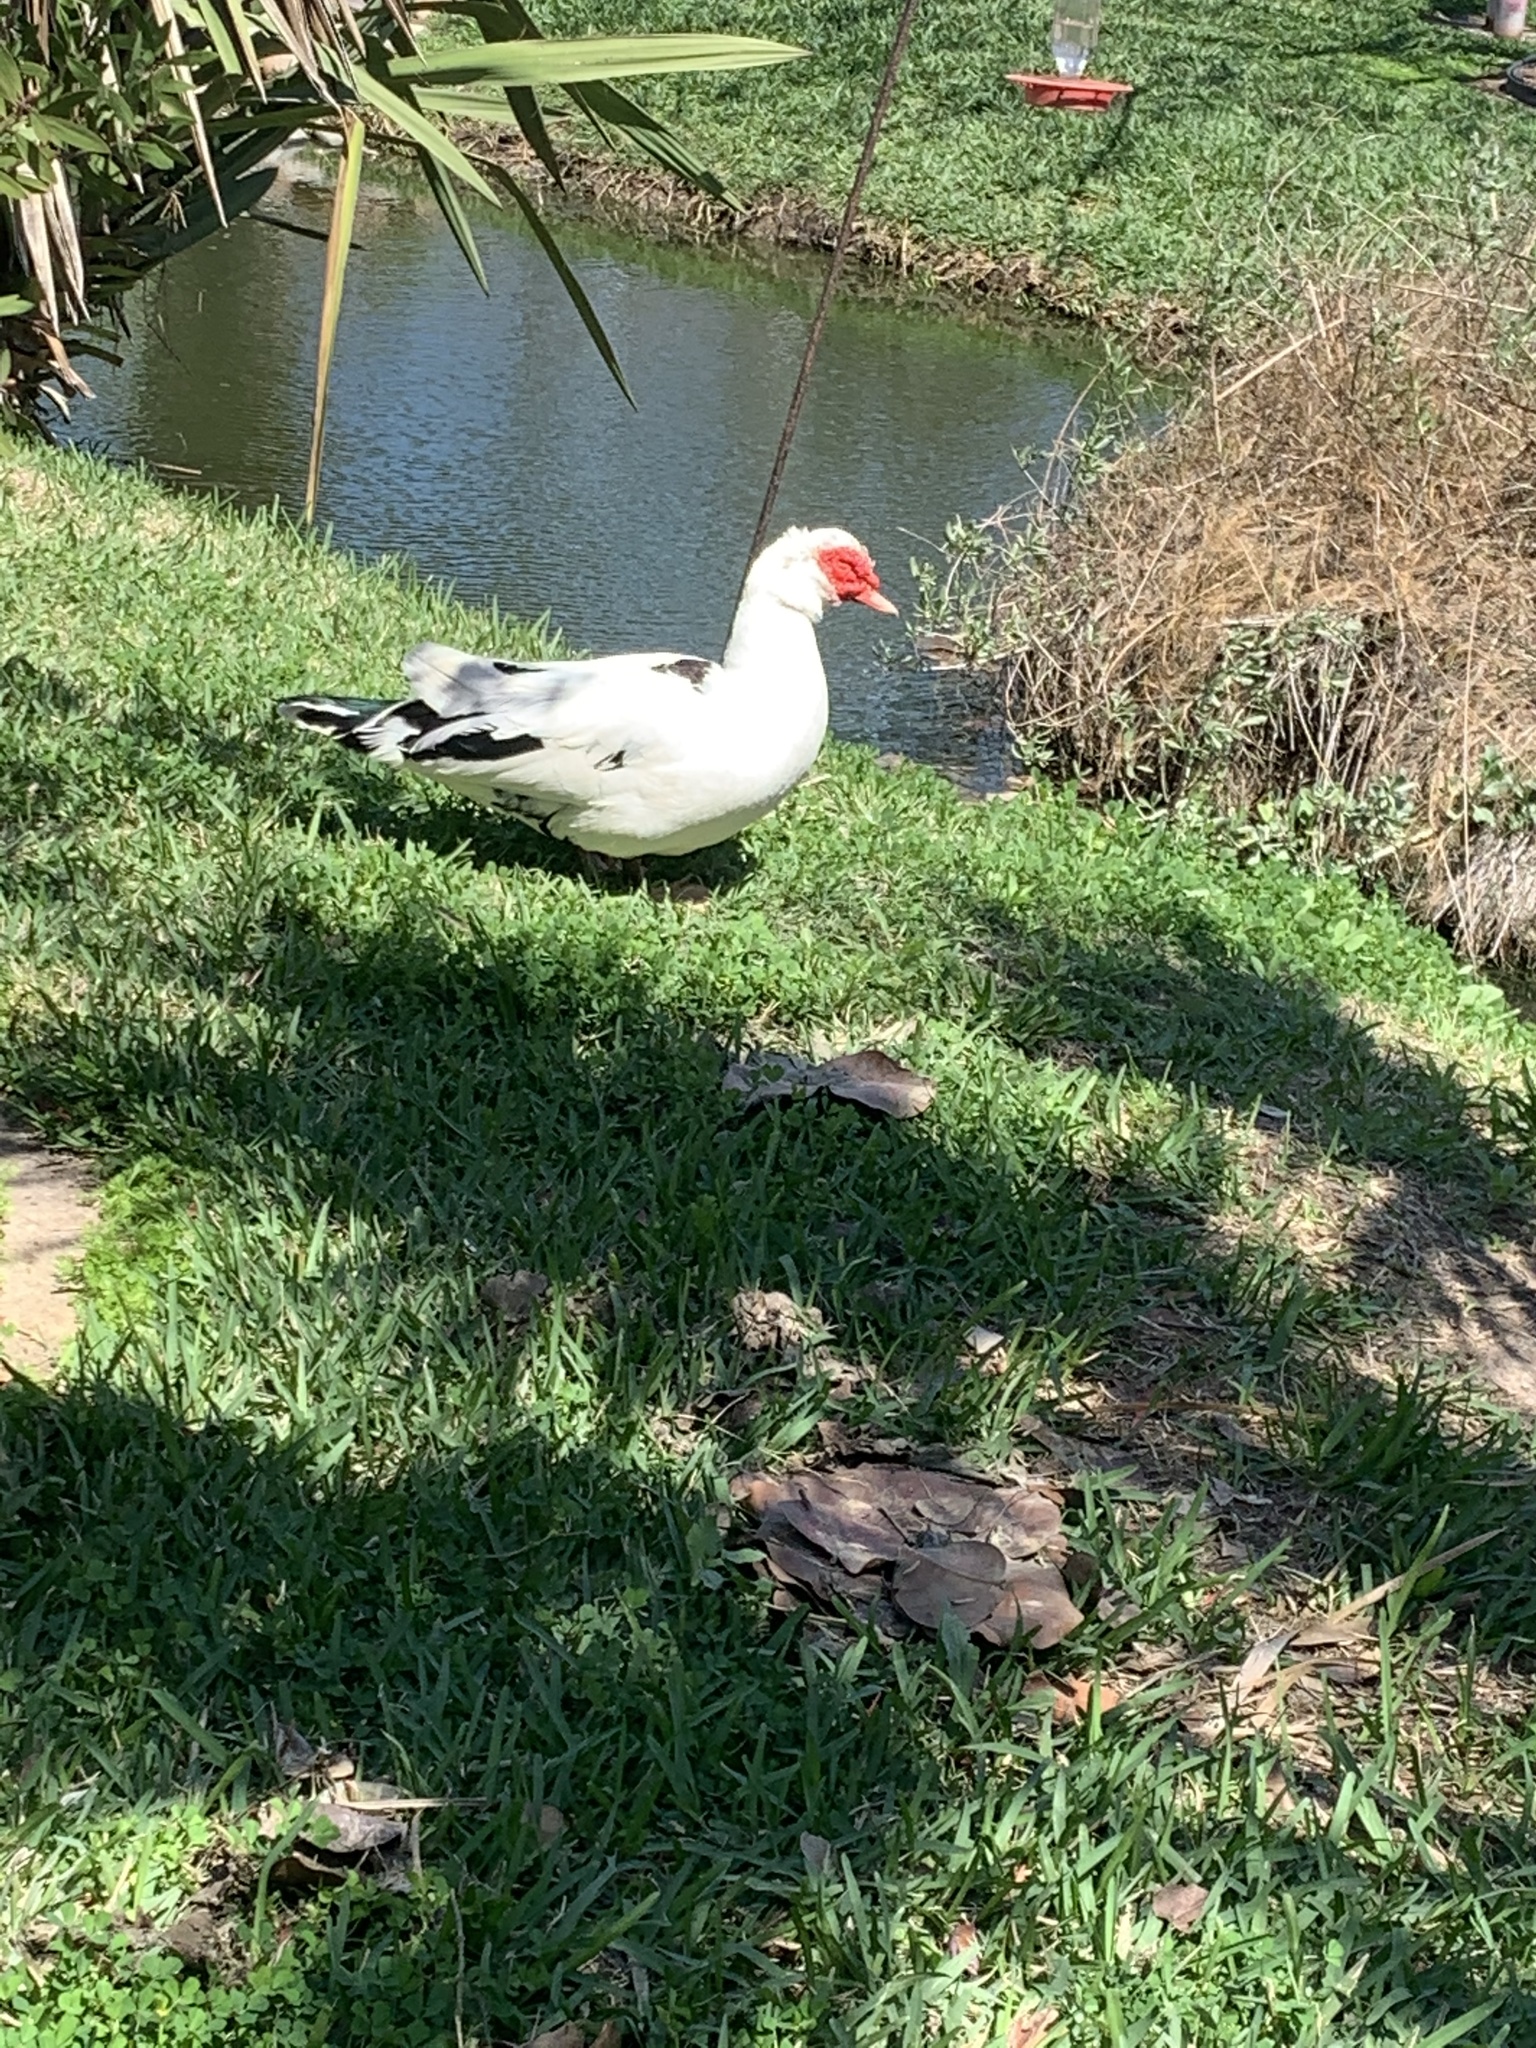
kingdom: Animalia
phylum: Chordata
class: Aves
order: Anseriformes
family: Anatidae
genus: Cairina
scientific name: Cairina moschata
